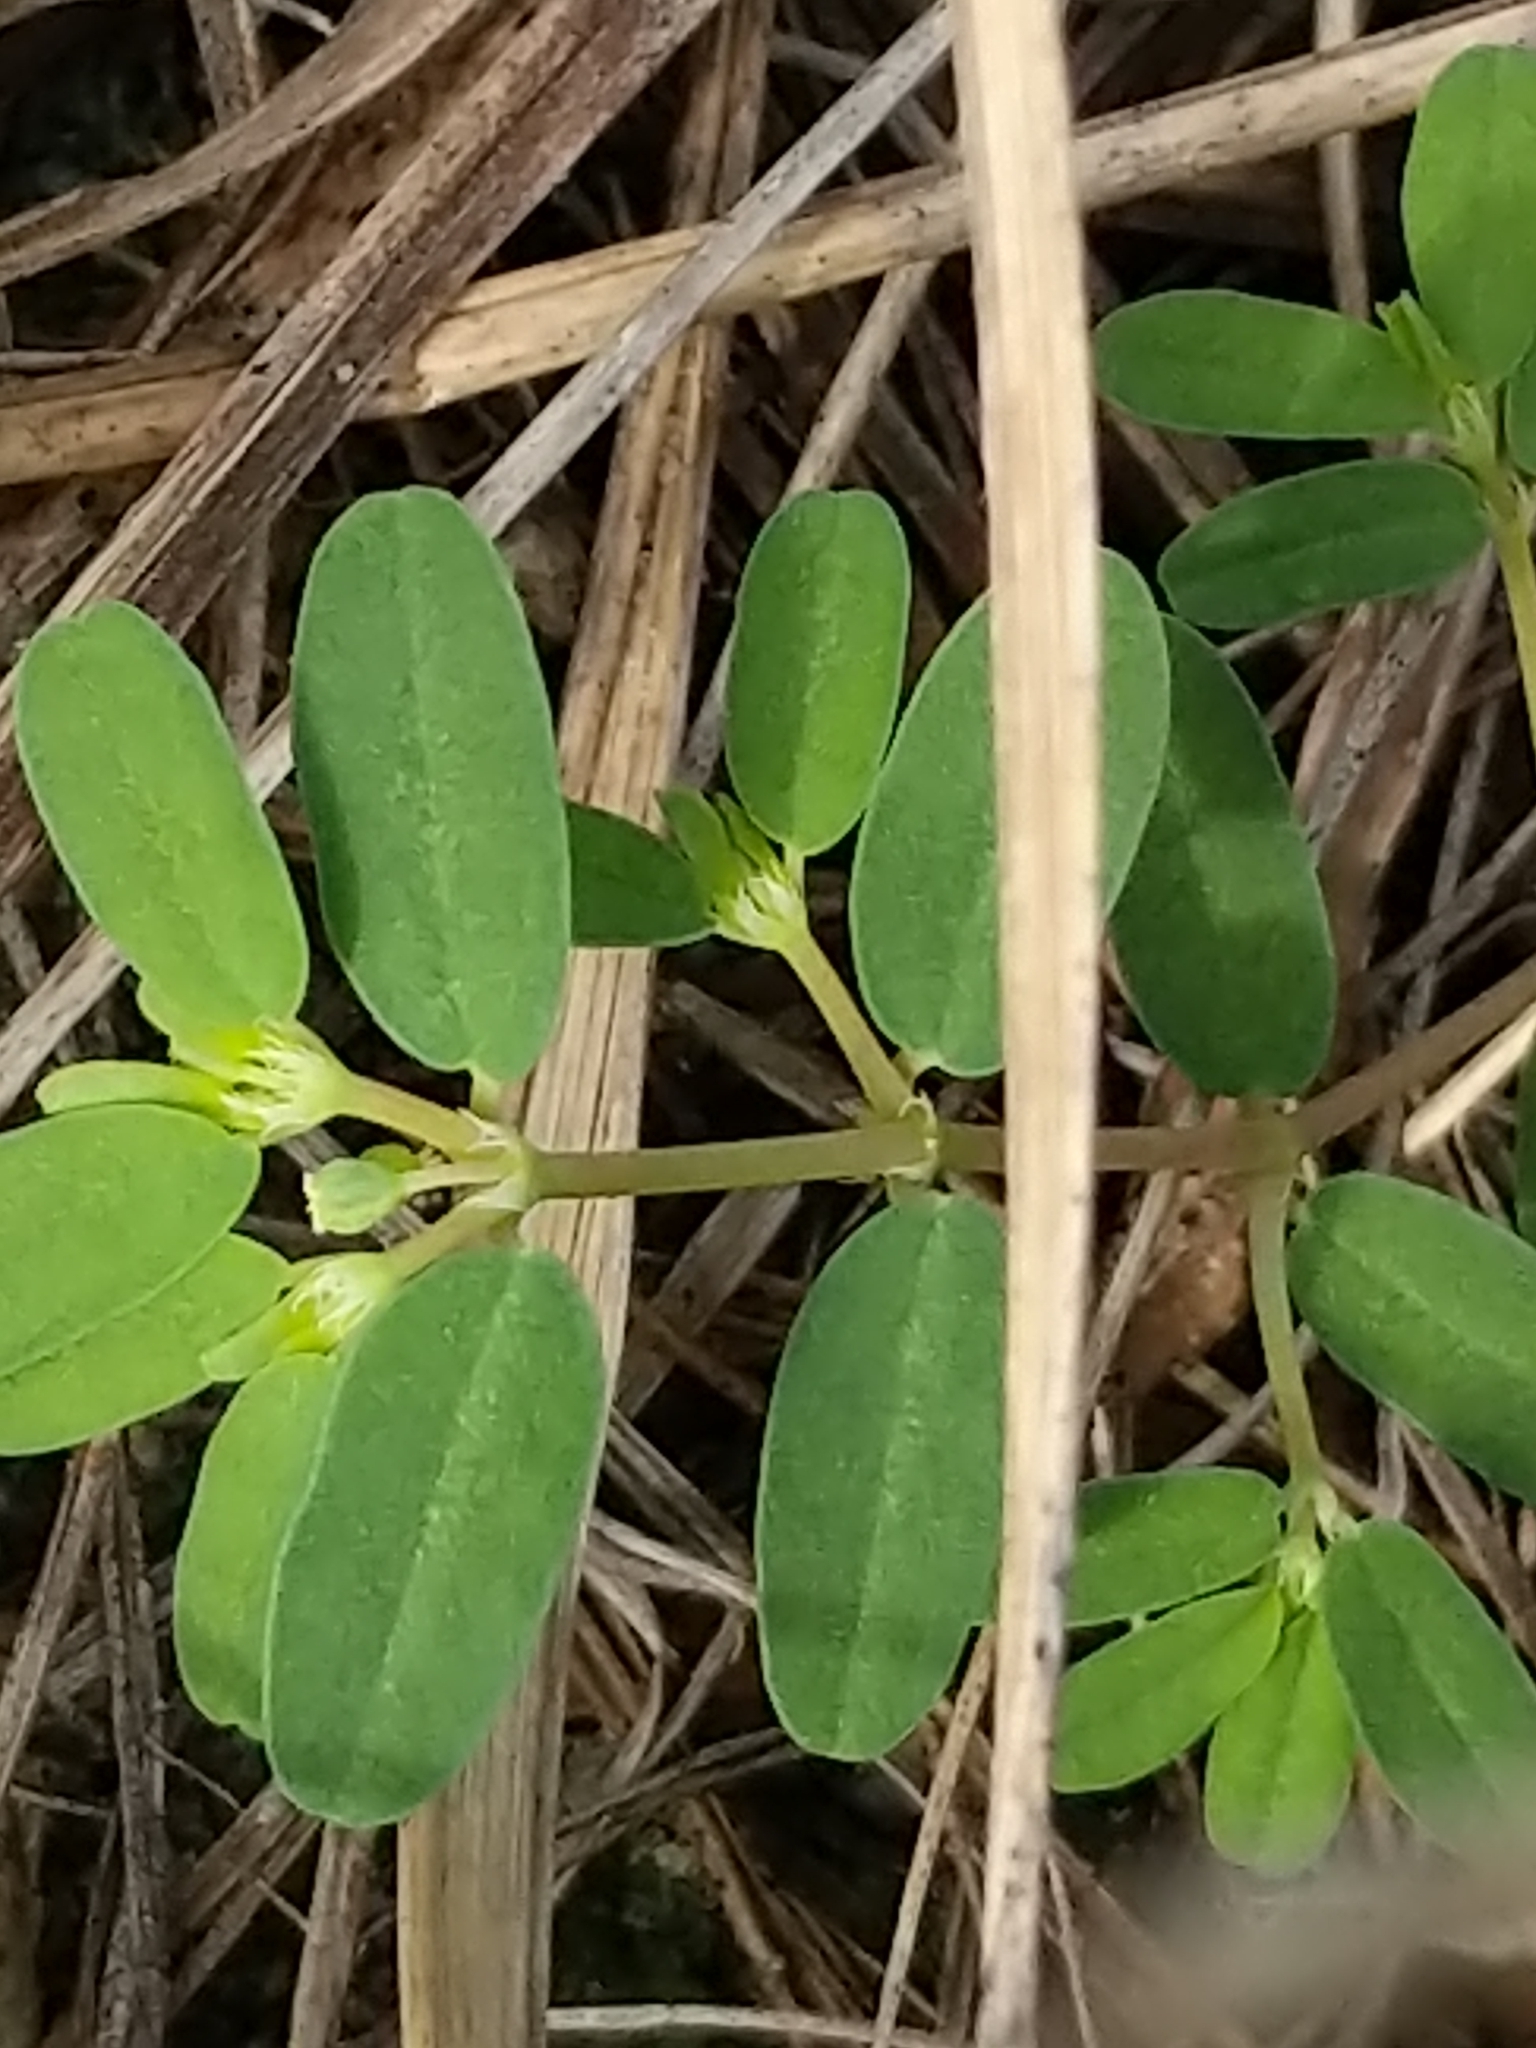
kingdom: Plantae
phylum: Tracheophyta
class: Magnoliopsida
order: Malpighiales
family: Euphorbiaceae
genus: Euphorbia
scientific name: Euphorbia bombensis
